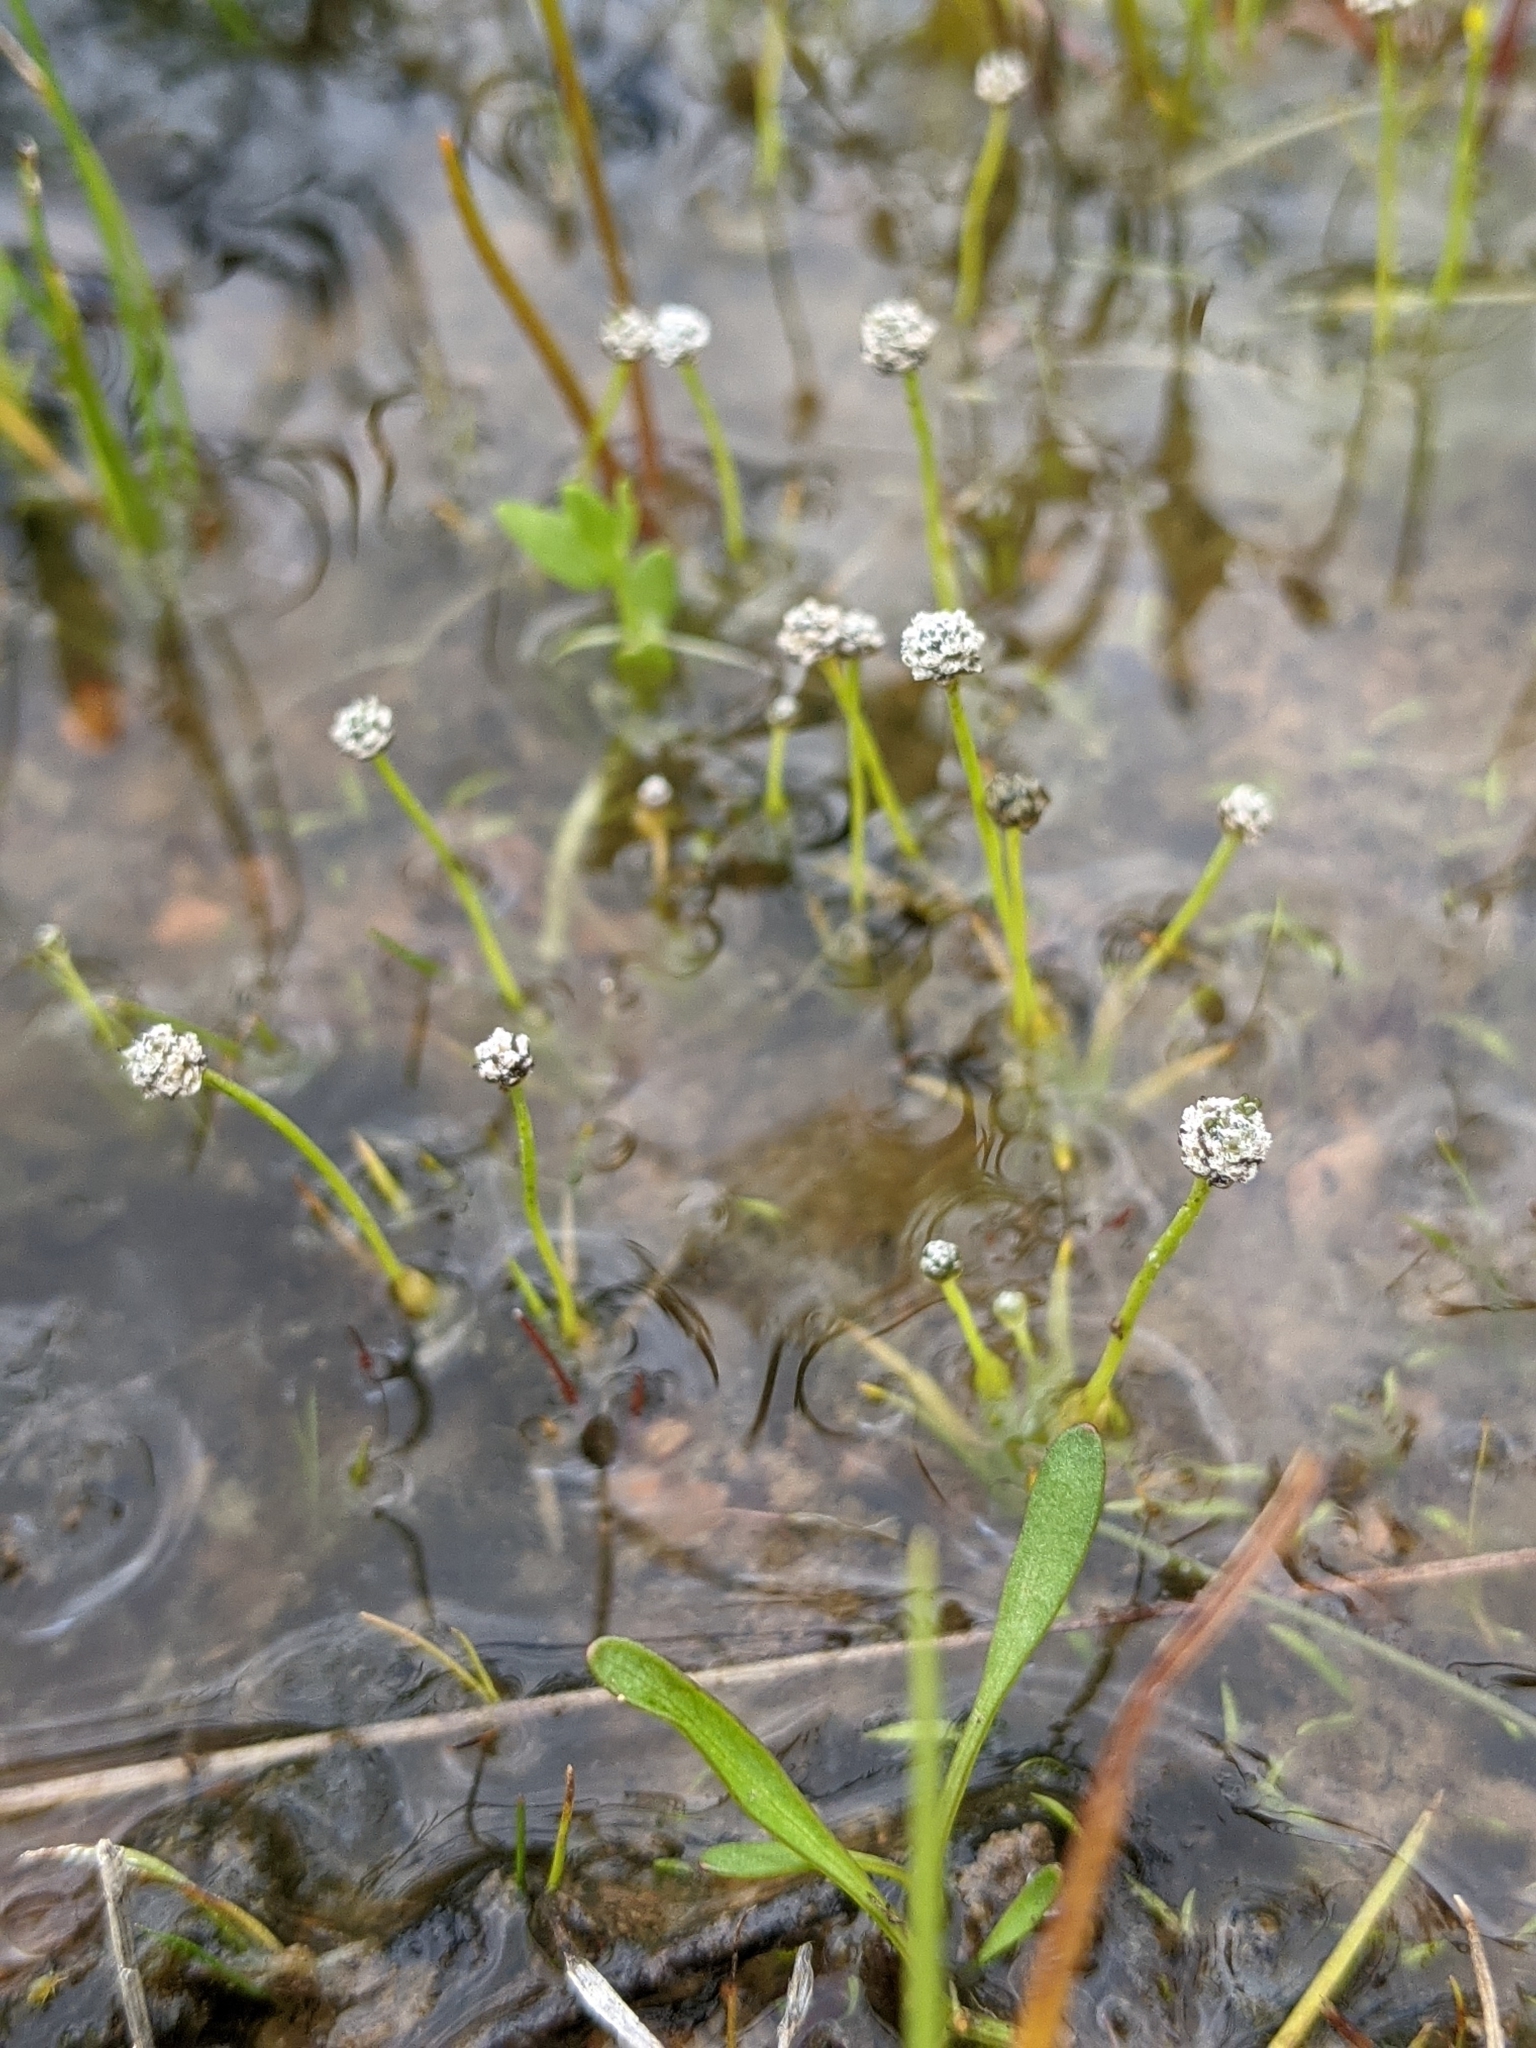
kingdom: Plantae
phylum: Tracheophyta
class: Liliopsida
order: Poales
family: Eriocaulaceae
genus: Eriocaulon
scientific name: Eriocaulon koernickianum
